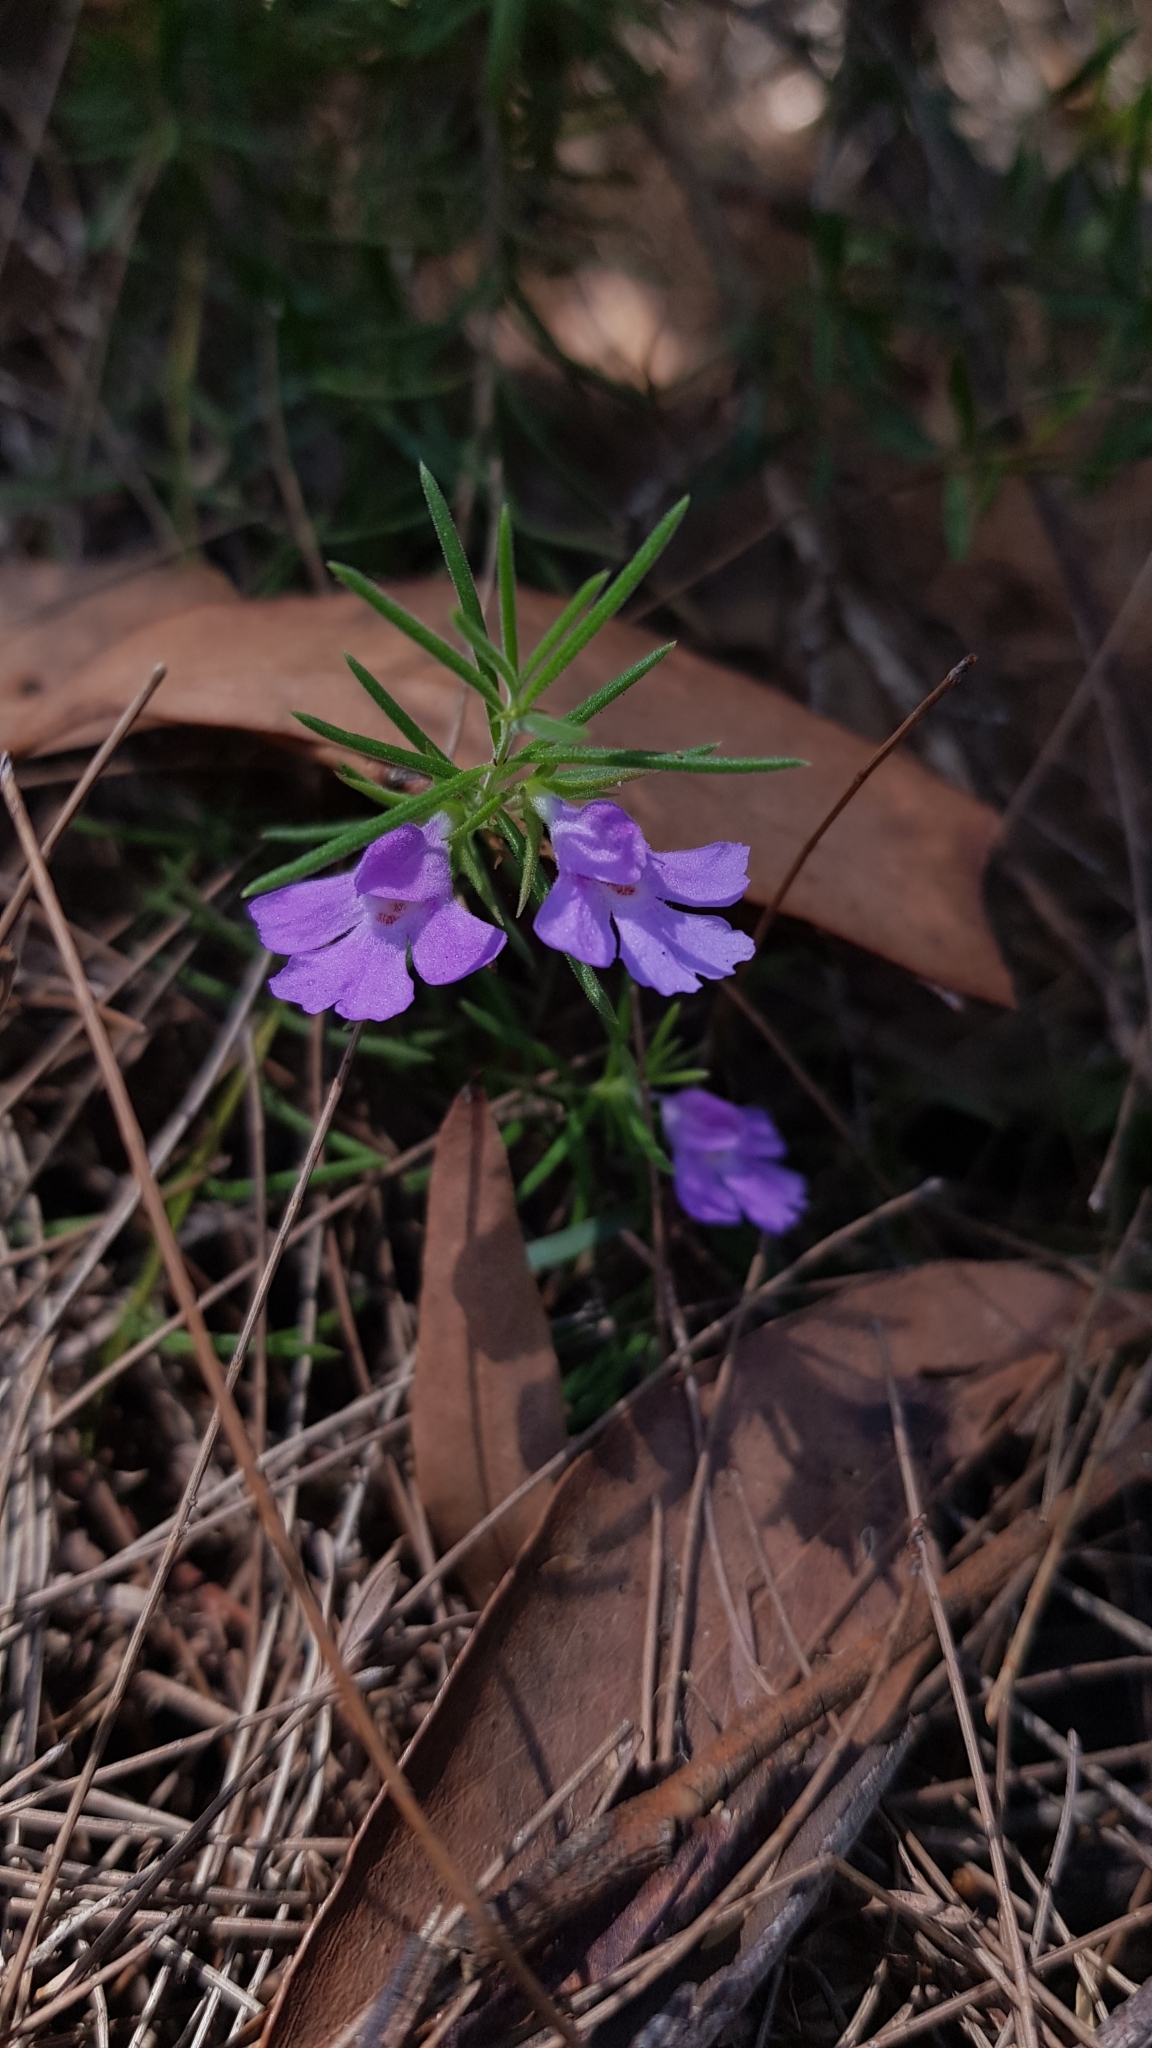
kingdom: Plantae
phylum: Tracheophyta
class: Magnoliopsida
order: Lamiales
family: Lamiaceae
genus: Hemigenia
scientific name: Hemigenia purpurea
